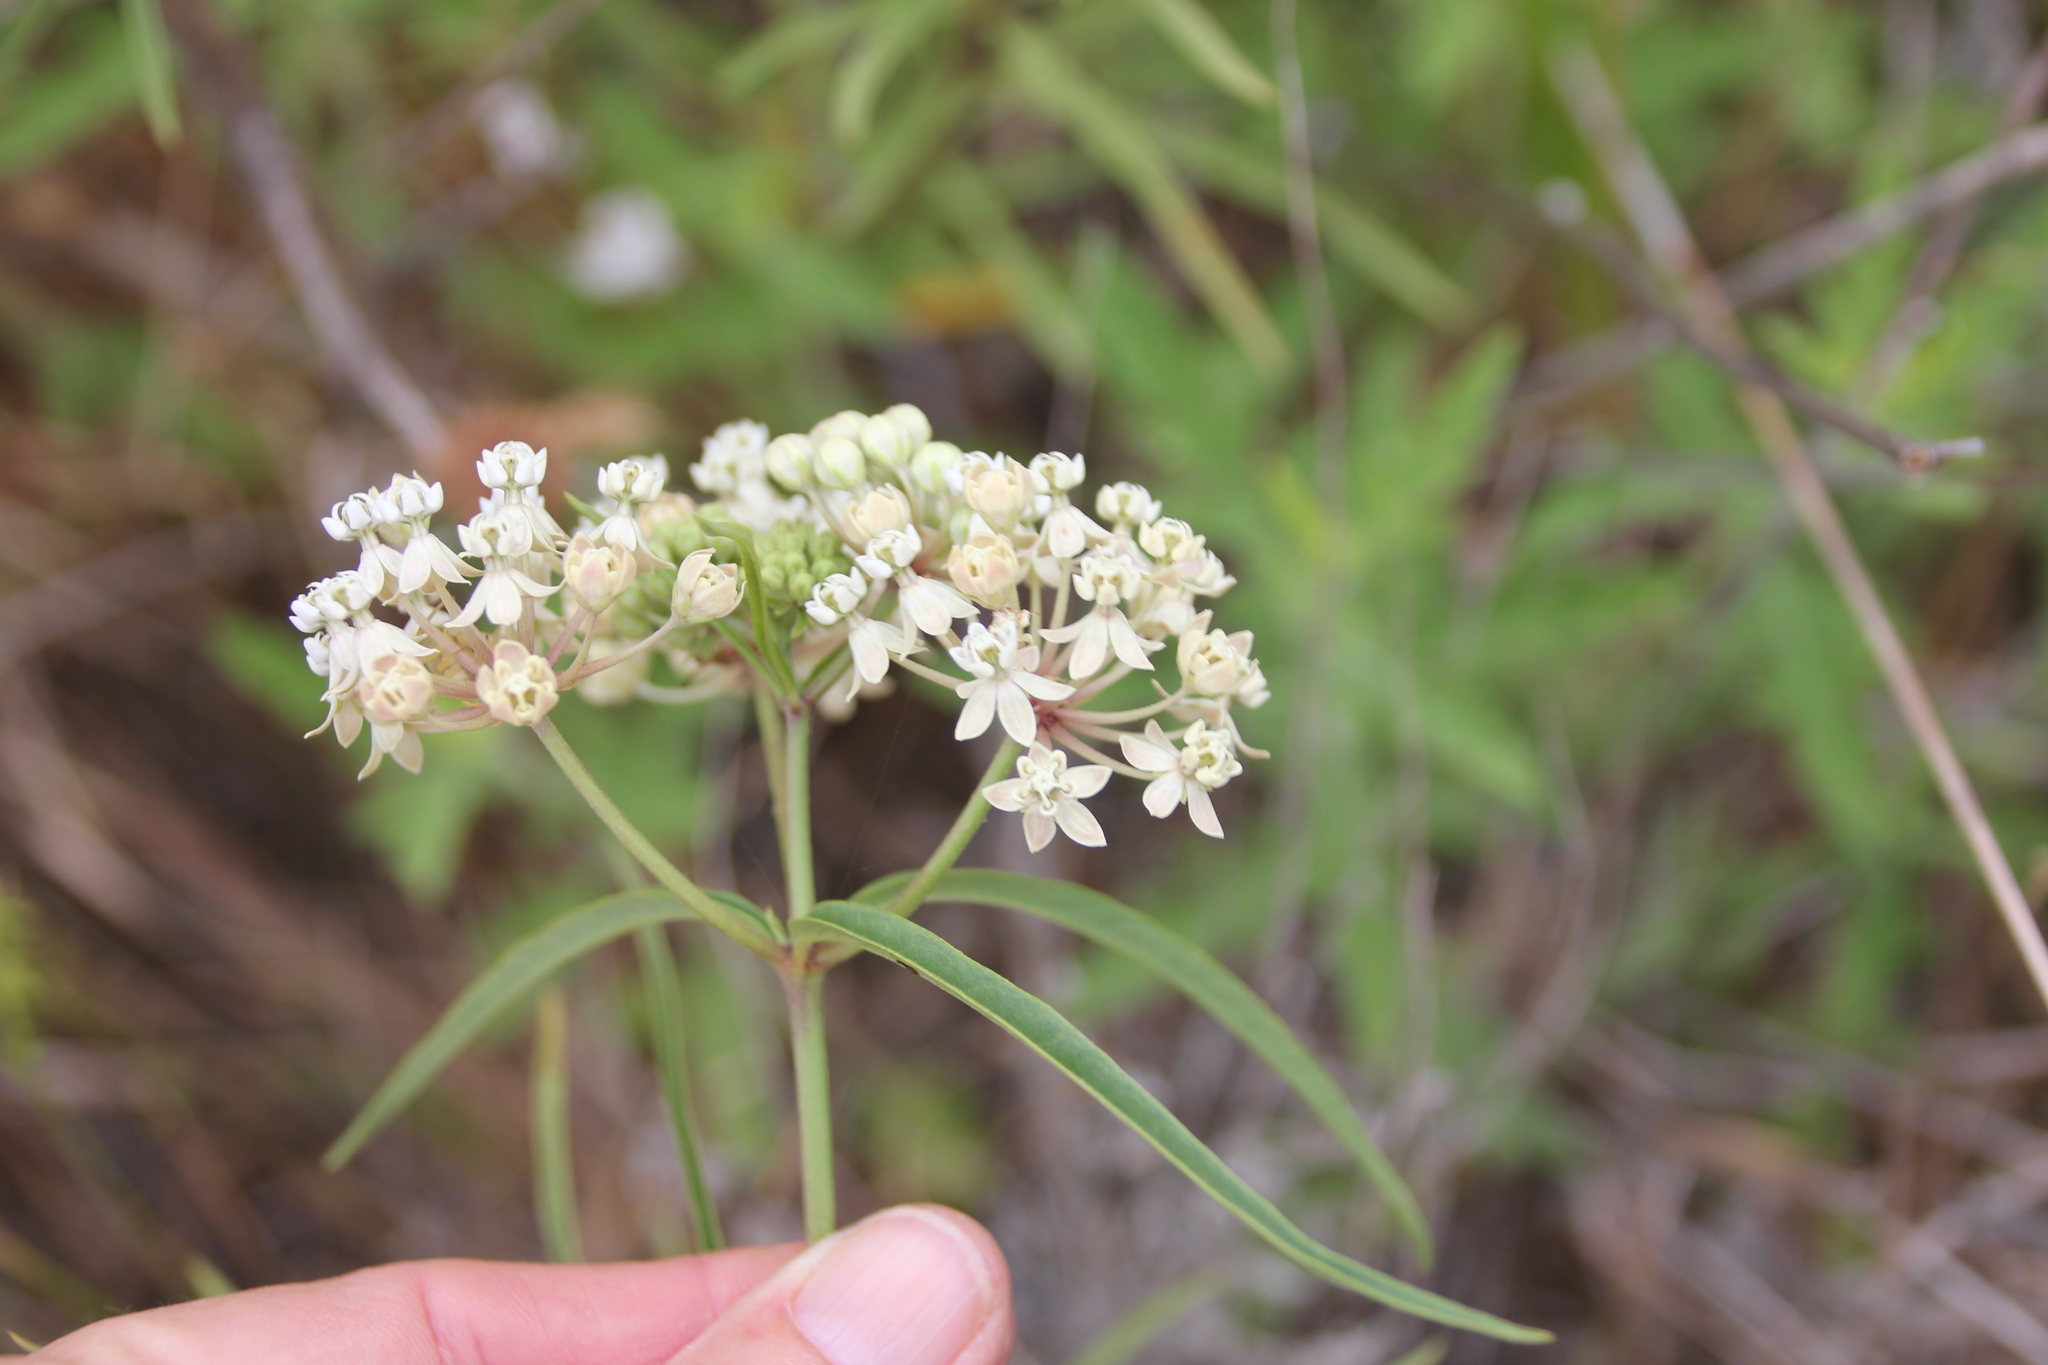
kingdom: Plantae
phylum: Tracheophyta
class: Magnoliopsida
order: Gentianales
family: Apocynaceae
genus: Asclepias
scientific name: Asclepias fascicularis
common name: Mexican milkweed
